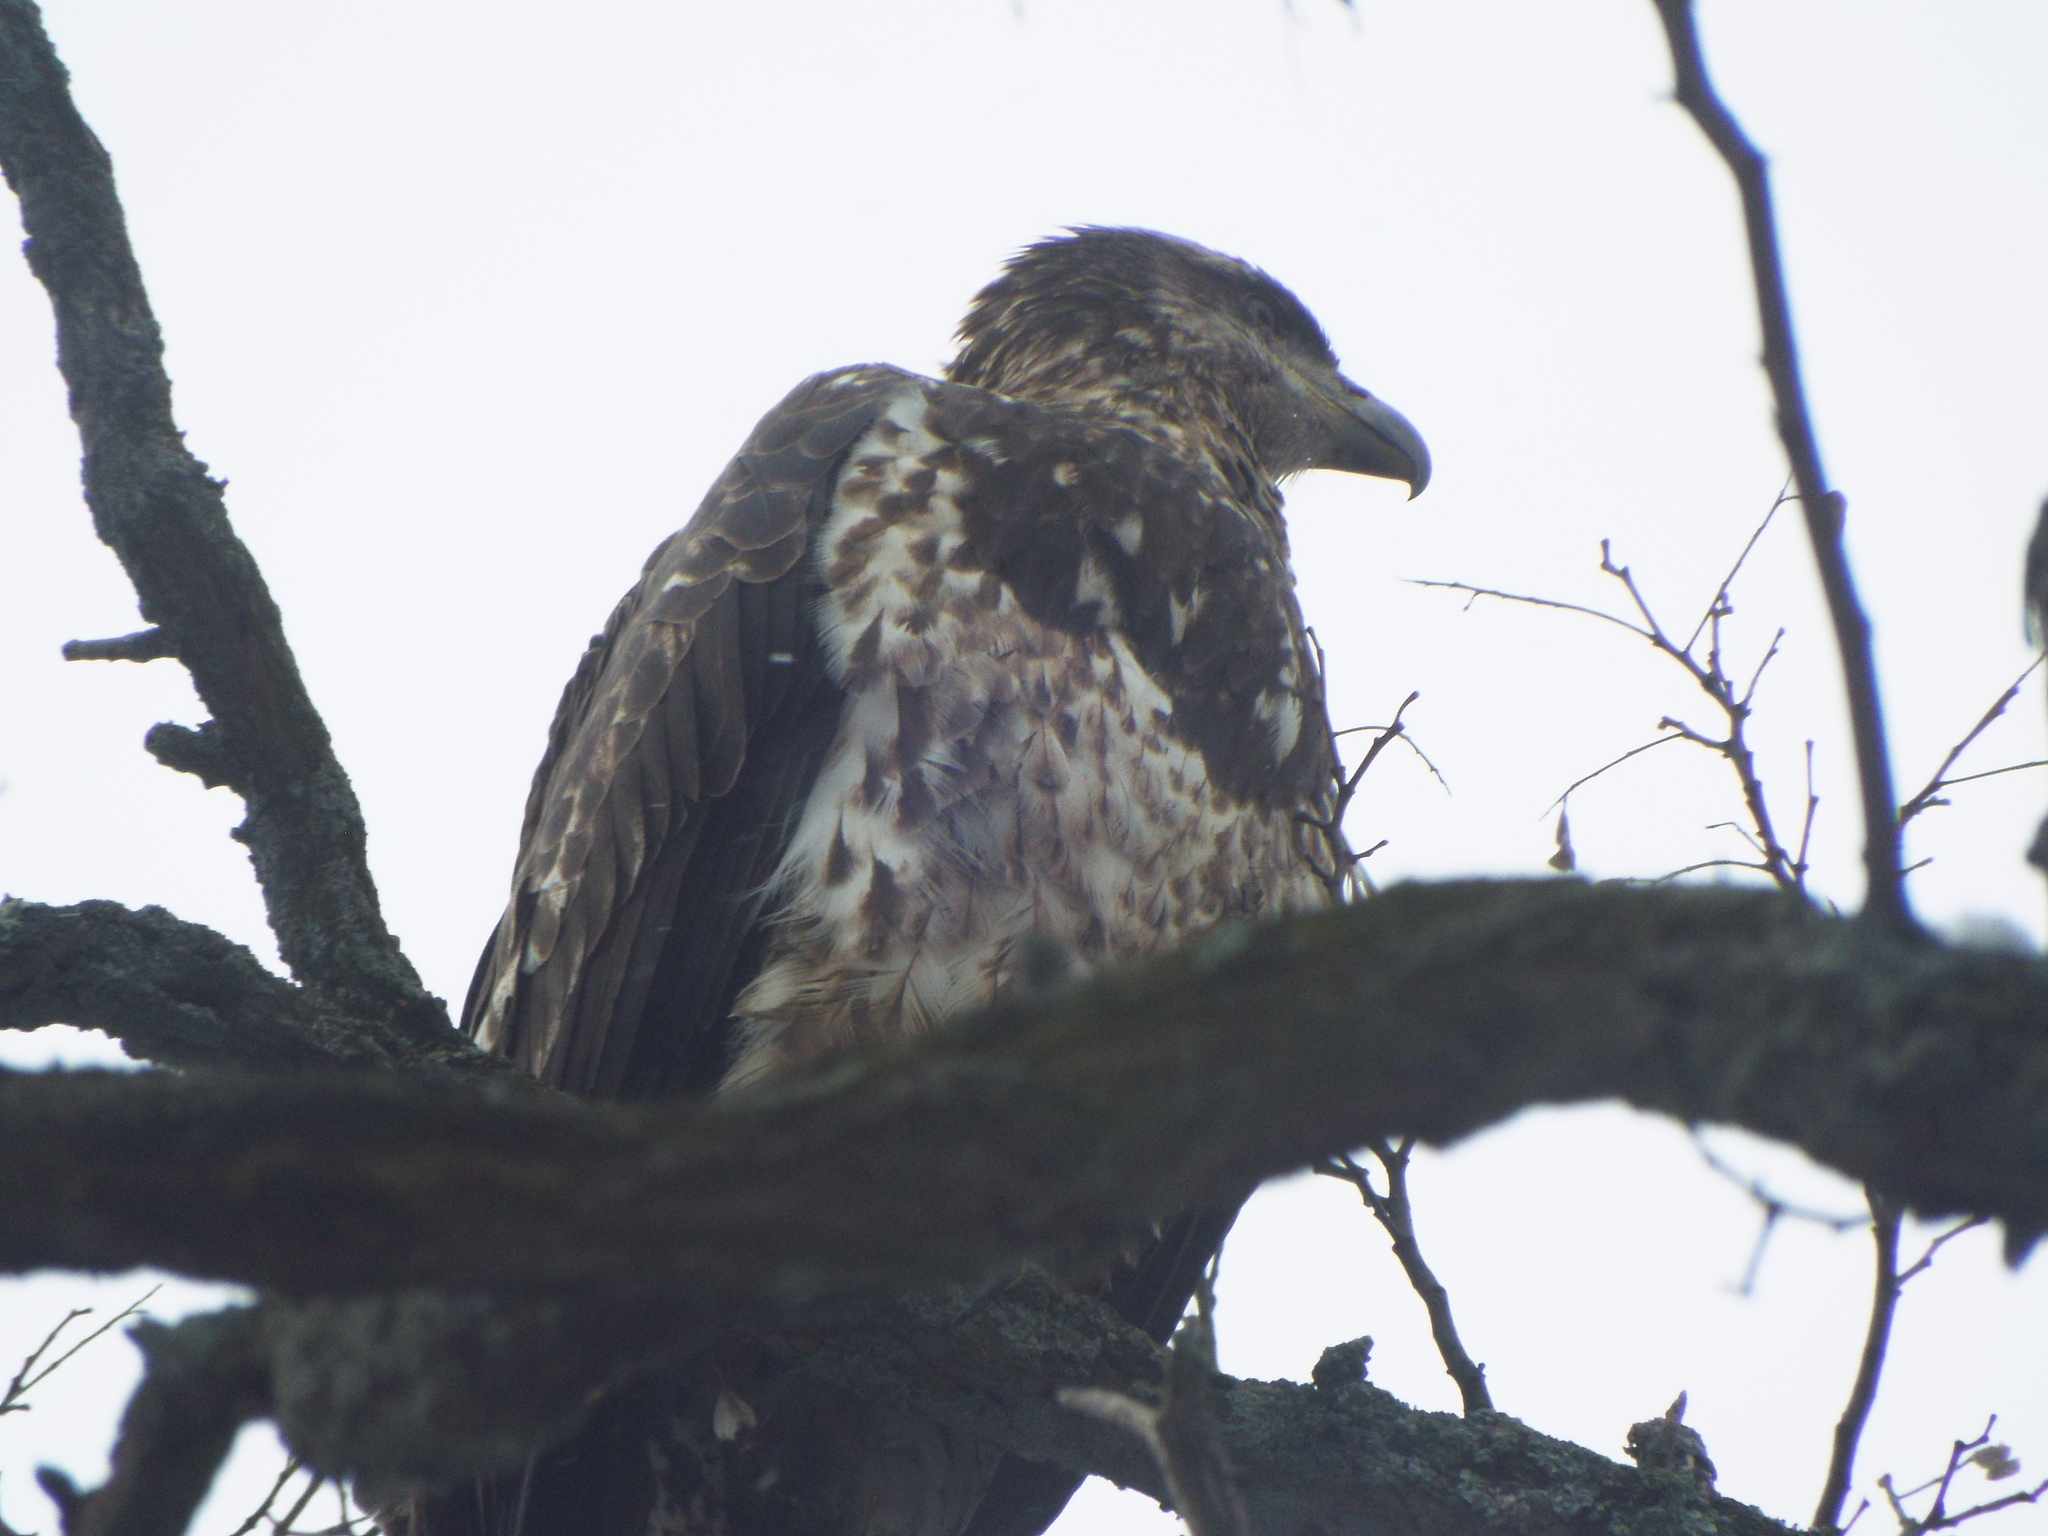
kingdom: Animalia
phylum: Chordata
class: Aves
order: Accipitriformes
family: Accipitridae
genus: Haliaeetus
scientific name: Haliaeetus leucocephalus
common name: Bald eagle
